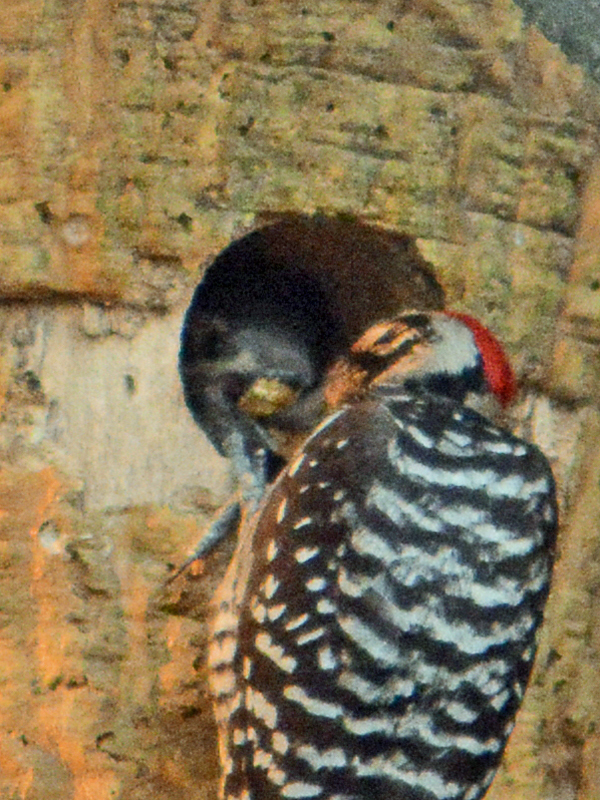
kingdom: Animalia
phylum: Chordata
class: Aves
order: Piciformes
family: Picidae
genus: Dryobates
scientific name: Dryobates scalaris
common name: Ladder-backed woodpecker
